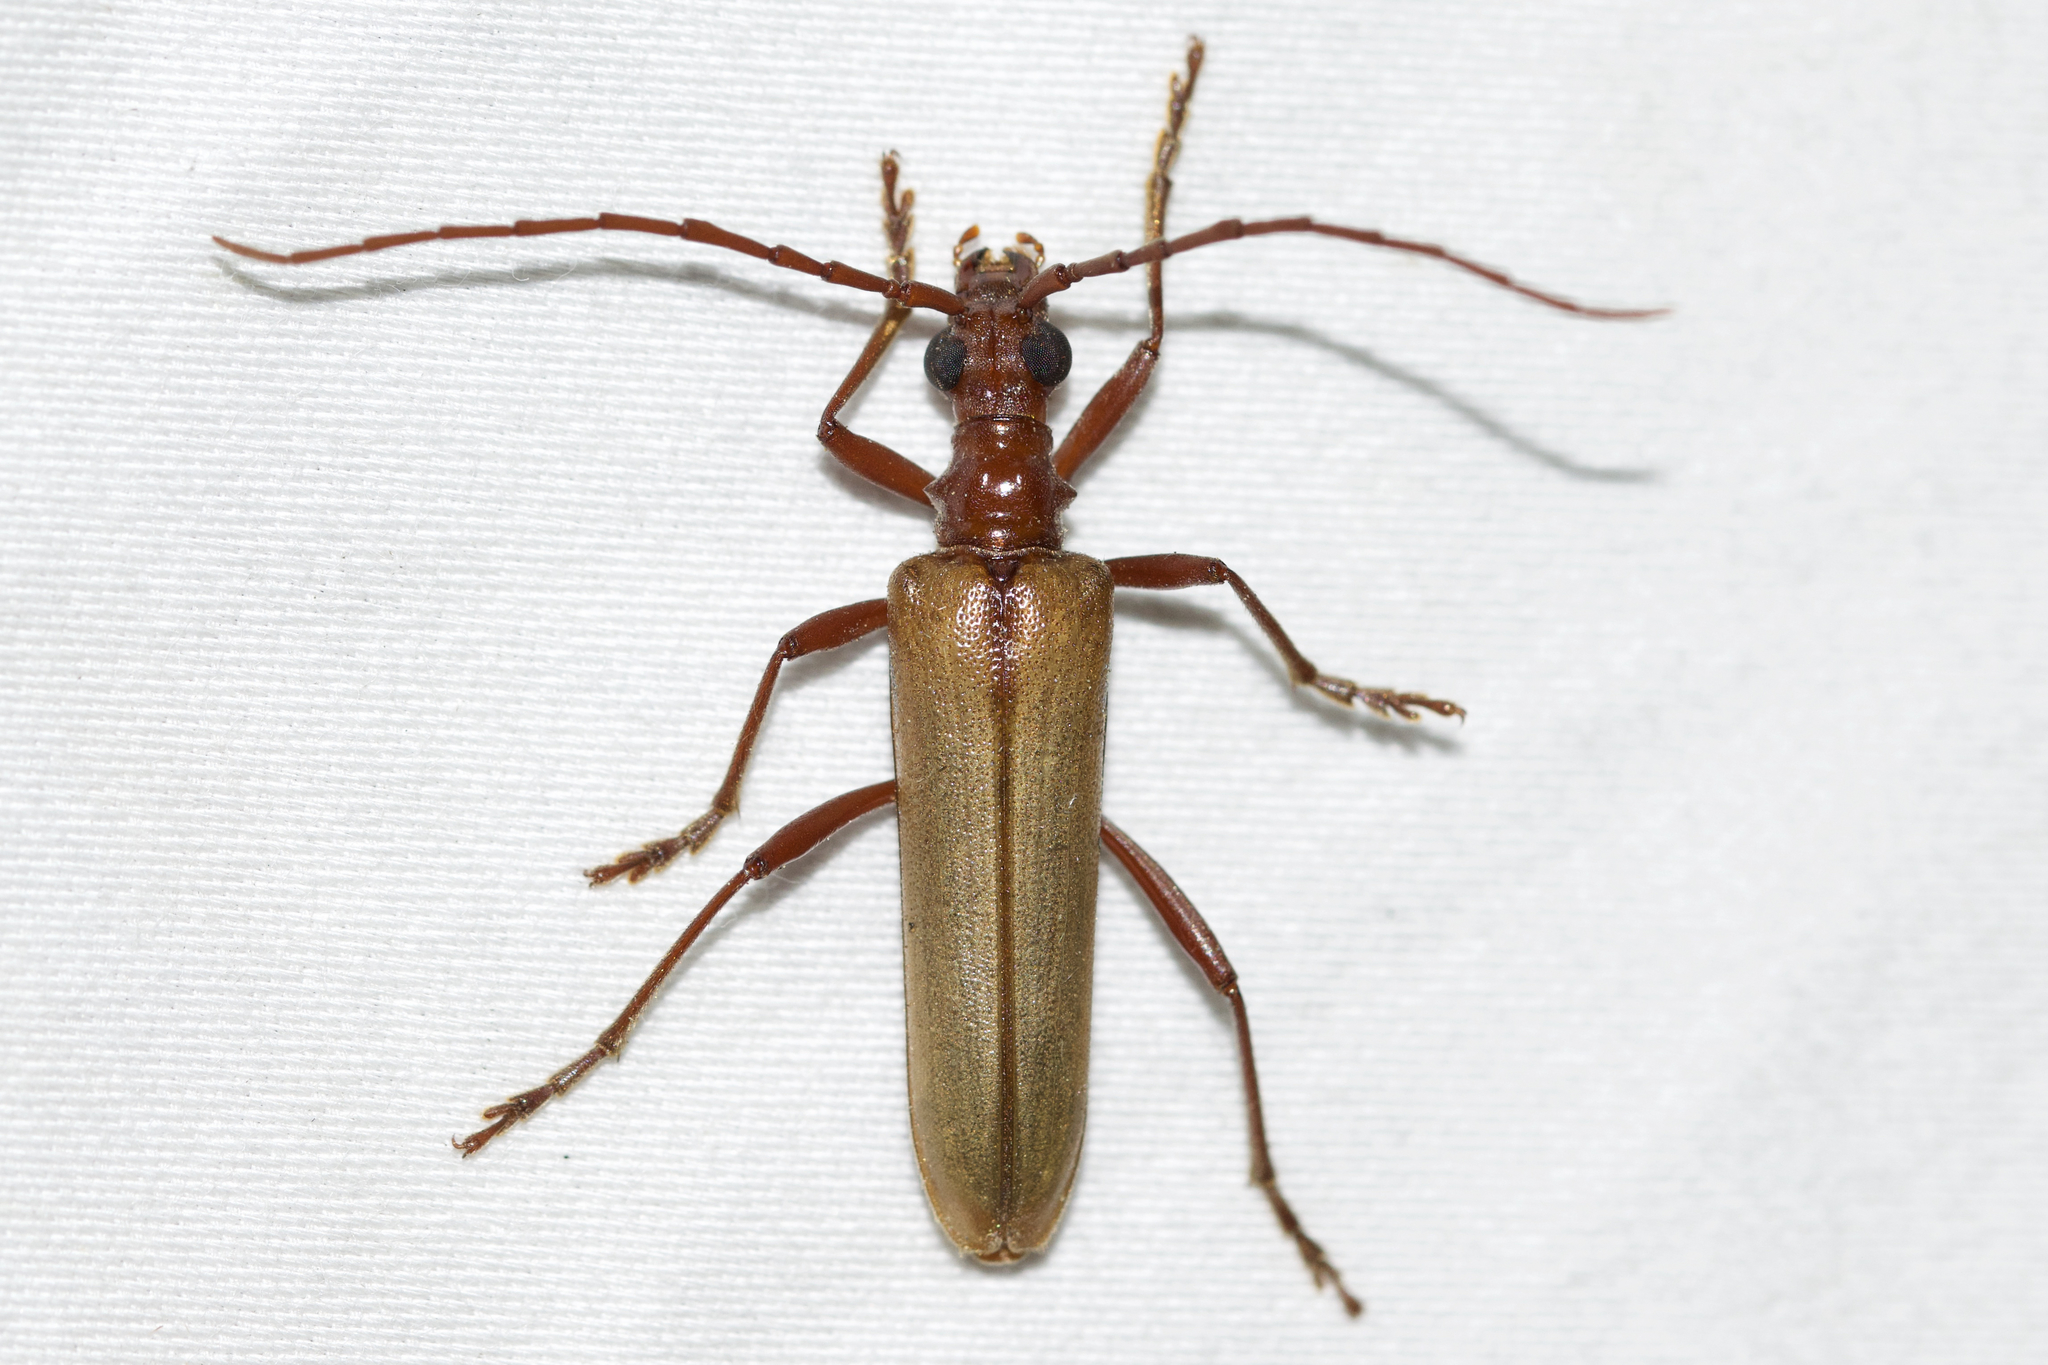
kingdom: Animalia
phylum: Arthropoda
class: Insecta
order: Coleoptera
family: Cerambycidae
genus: Centrodera
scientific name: Centrodera decolorata
